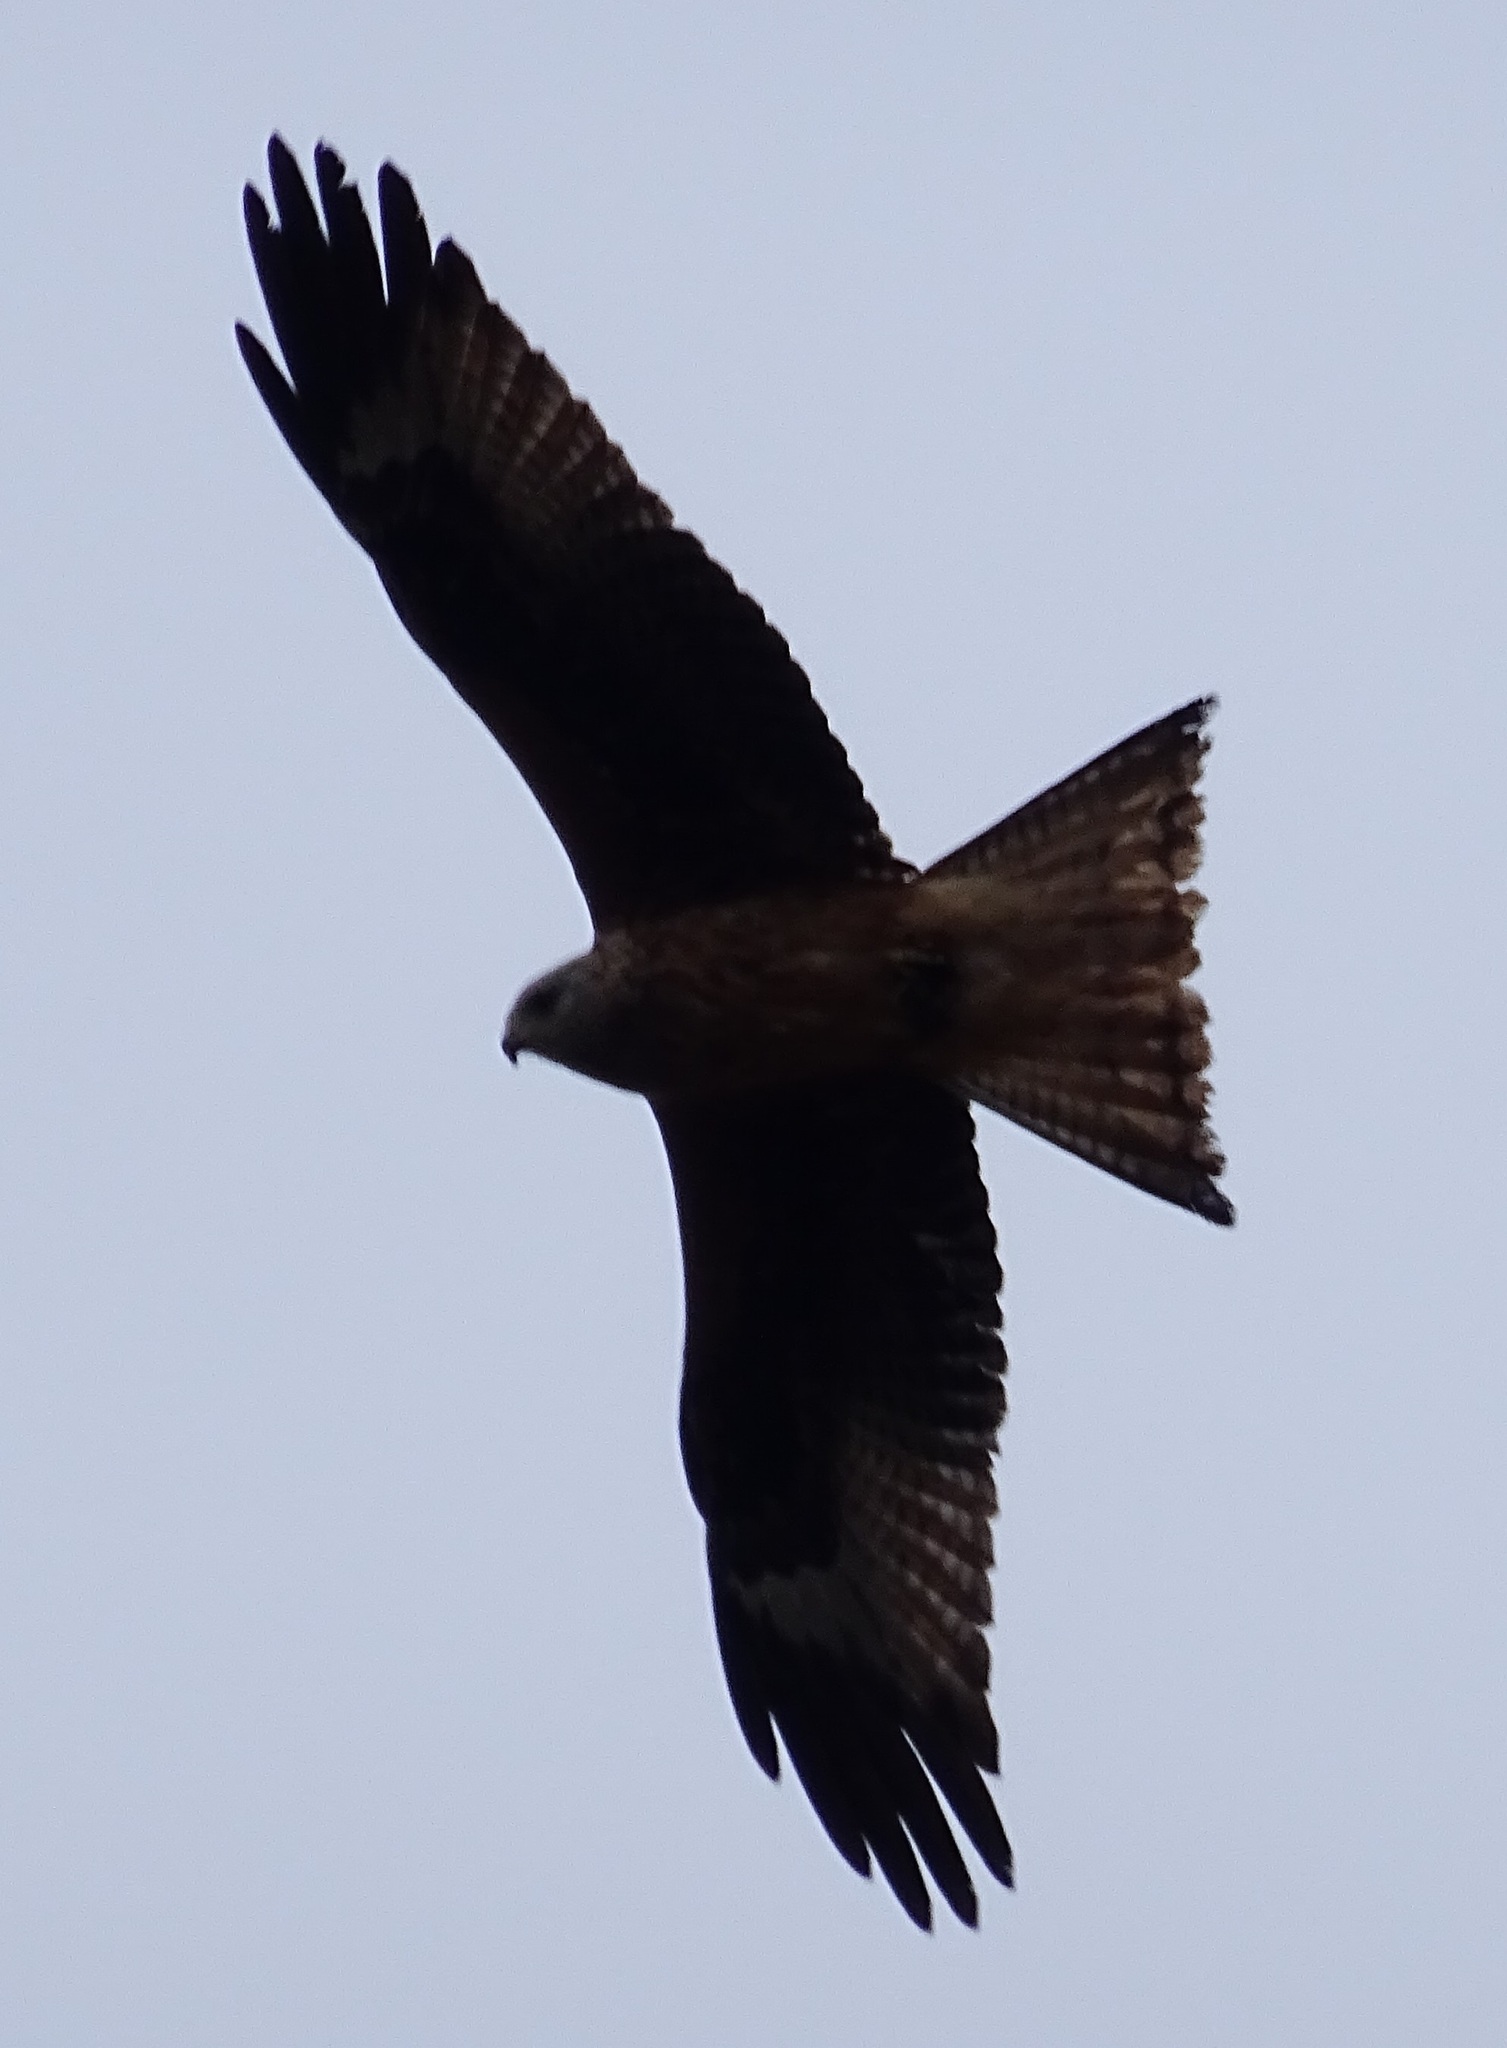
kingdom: Animalia
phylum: Chordata
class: Aves
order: Accipitriformes
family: Accipitridae
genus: Milvus
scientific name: Milvus milvus
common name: Red kite
